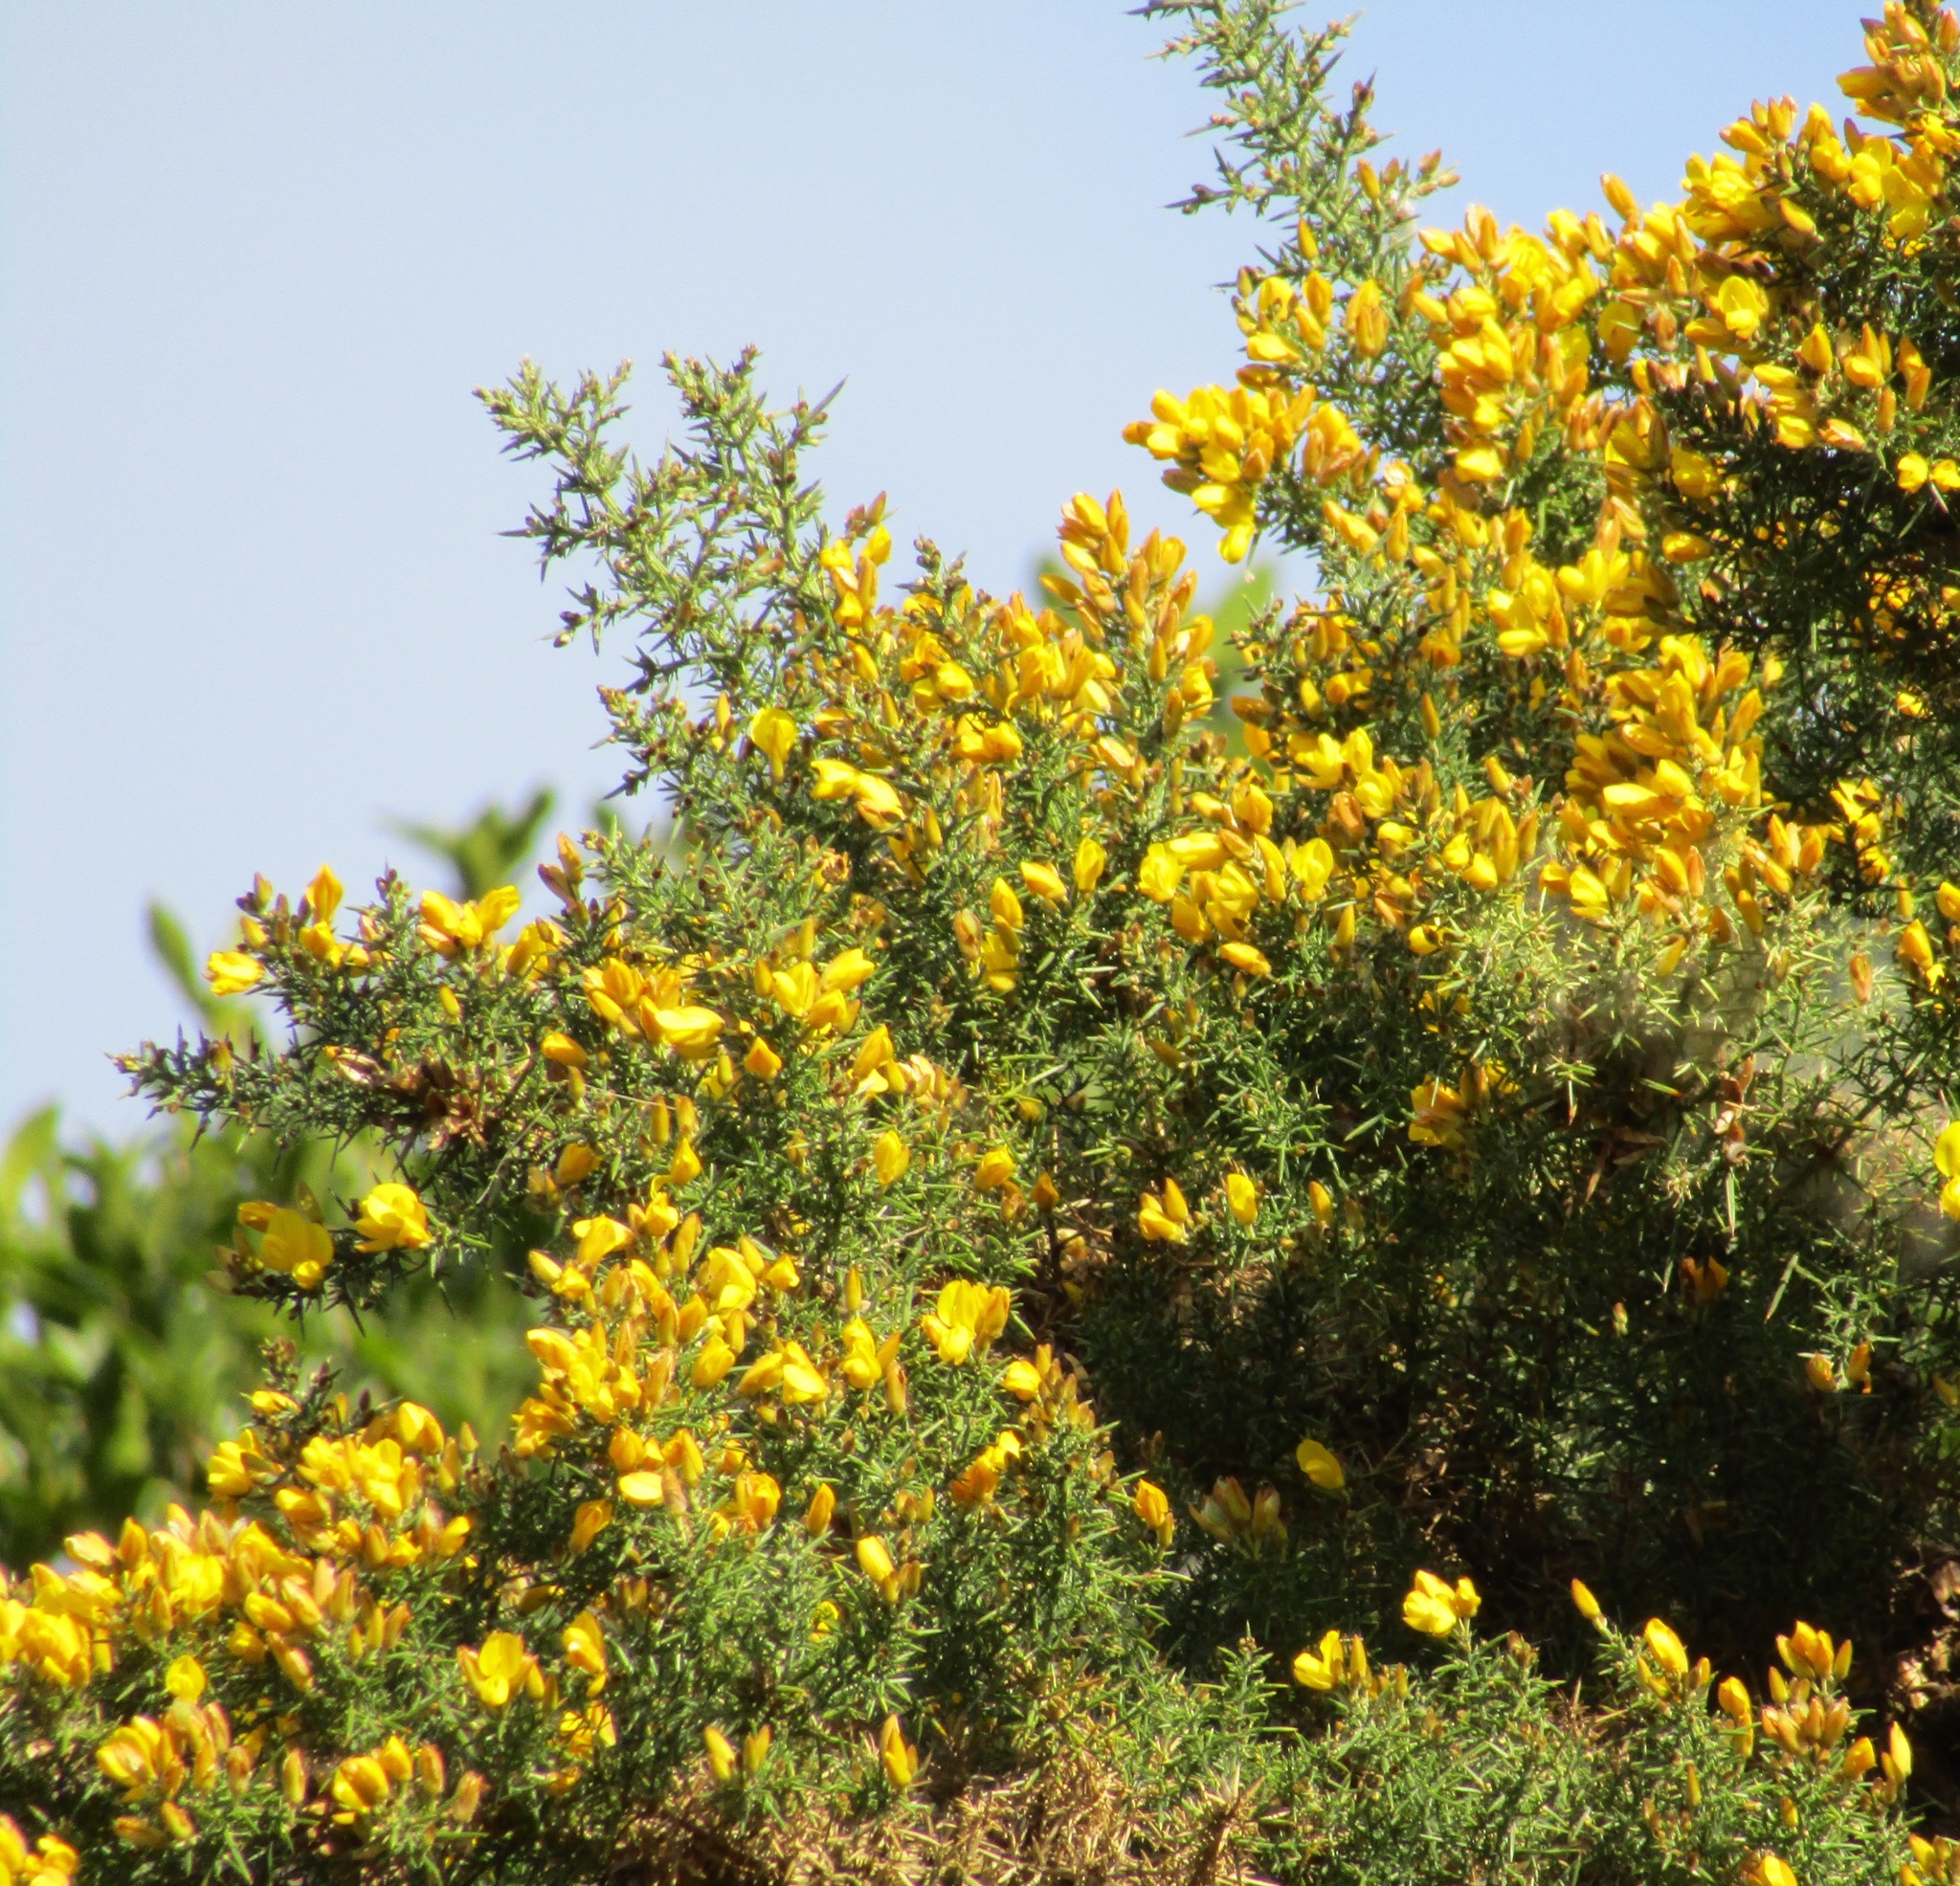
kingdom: Plantae
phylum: Tracheophyta
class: Magnoliopsida
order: Fabales
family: Fabaceae
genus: Ulex
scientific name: Ulex europaeus
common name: Common gorse
